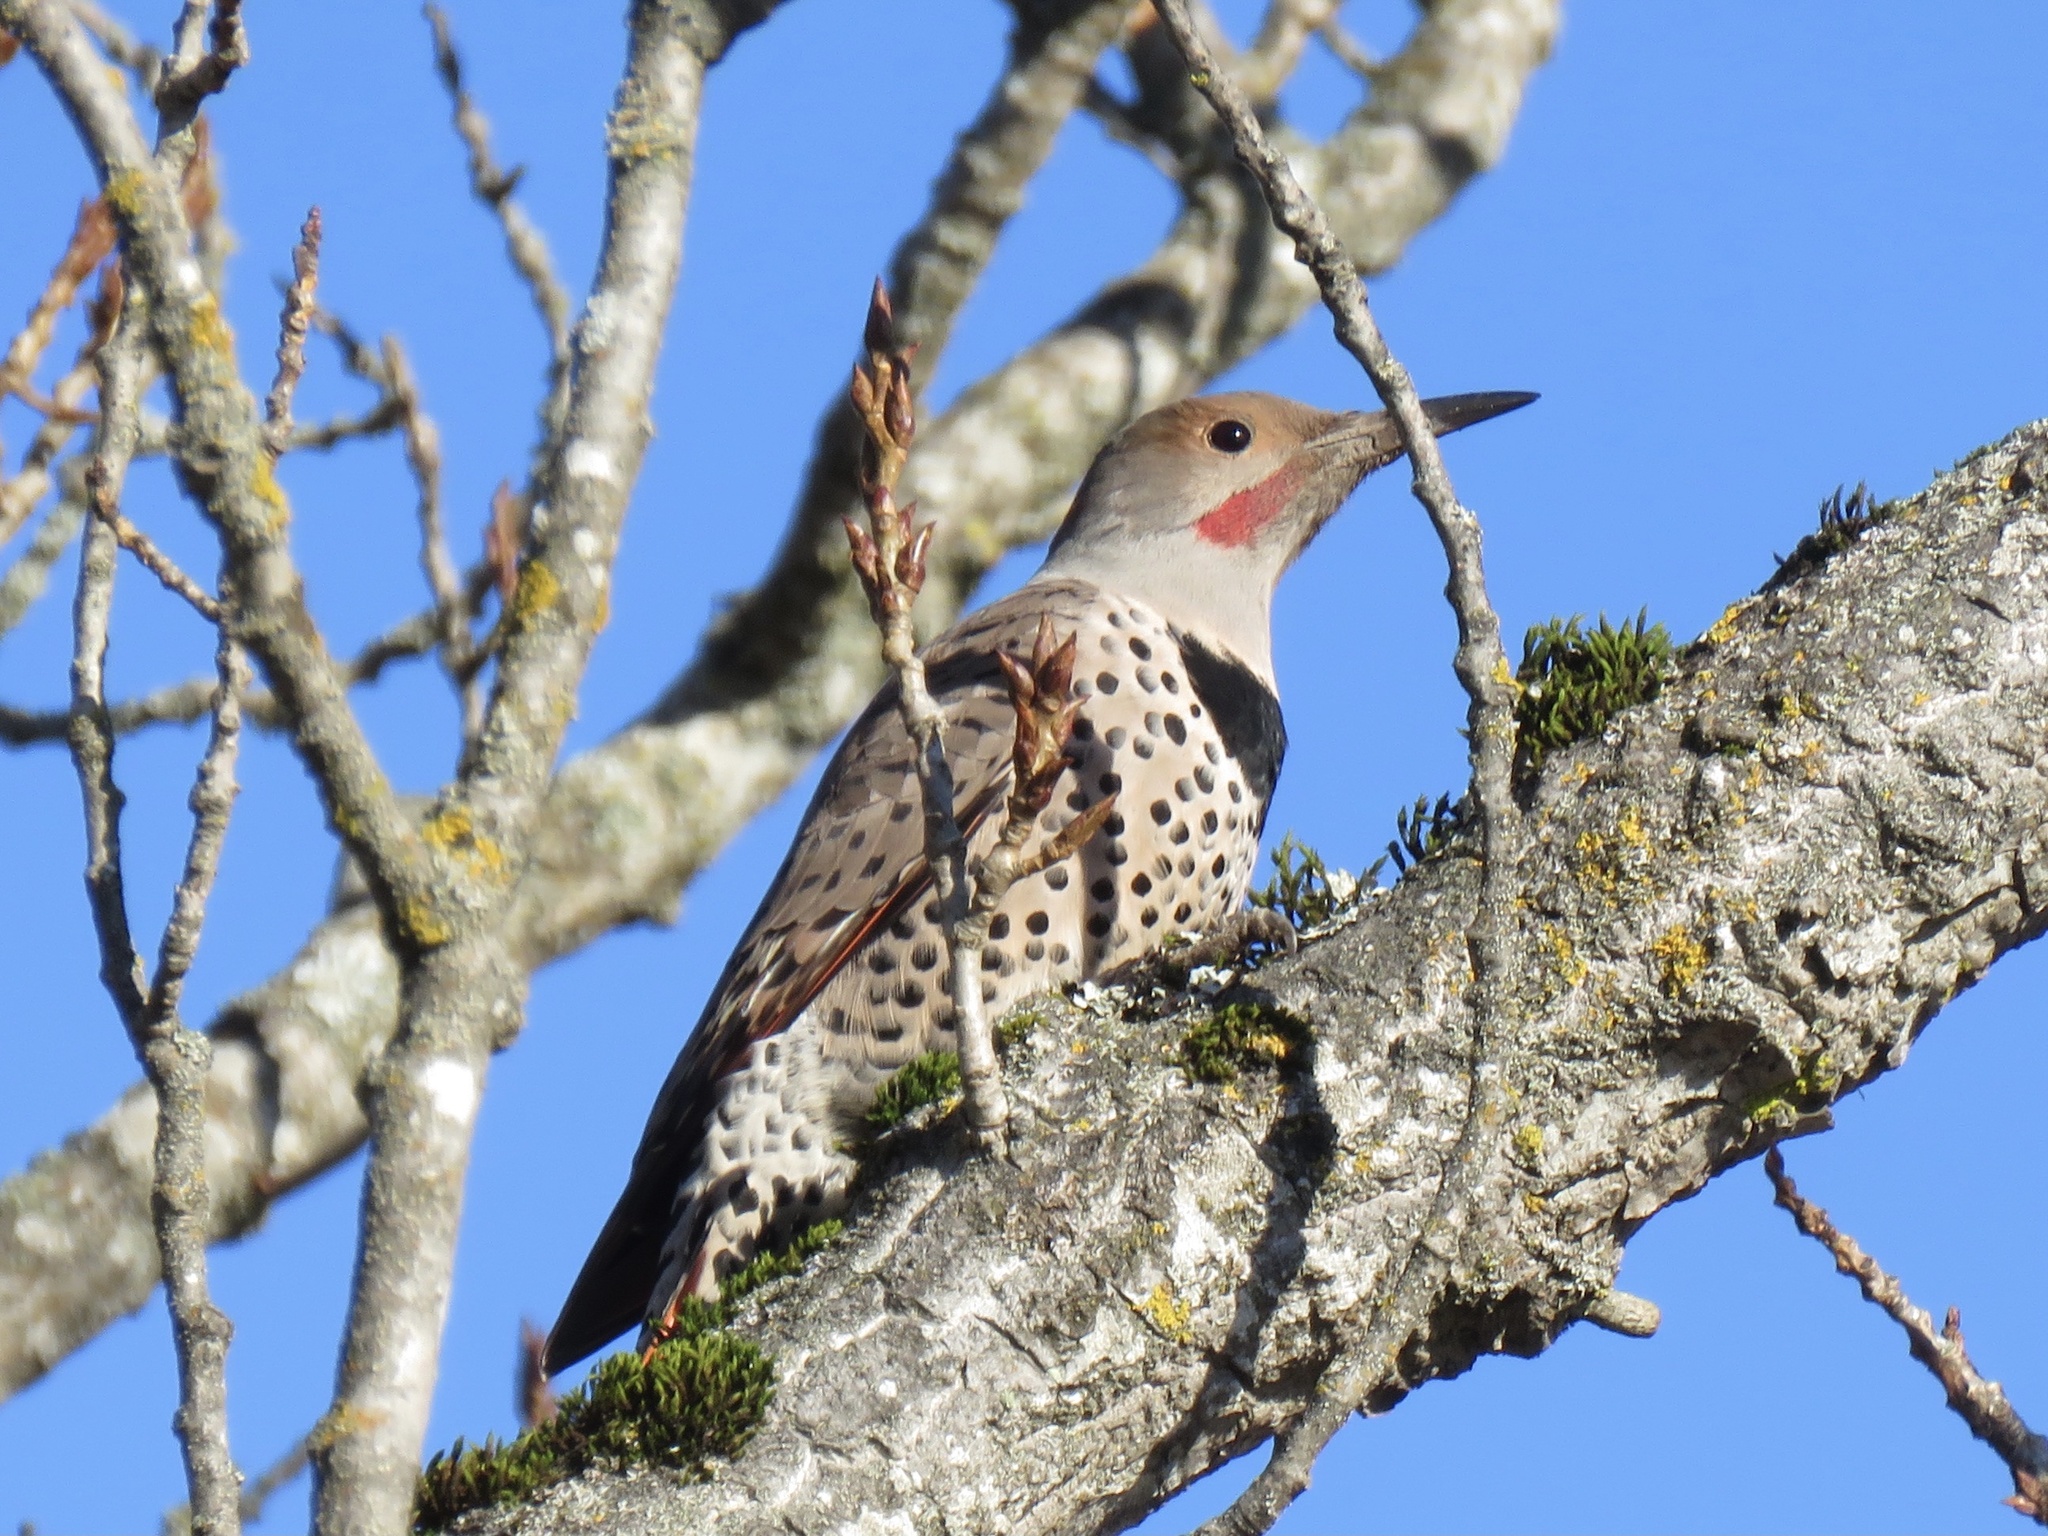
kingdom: Animalia
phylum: Chordata
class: Aves
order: Piciformes
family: Picidae
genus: Colaptes
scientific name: Colaptes auratus
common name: Northern flicker
